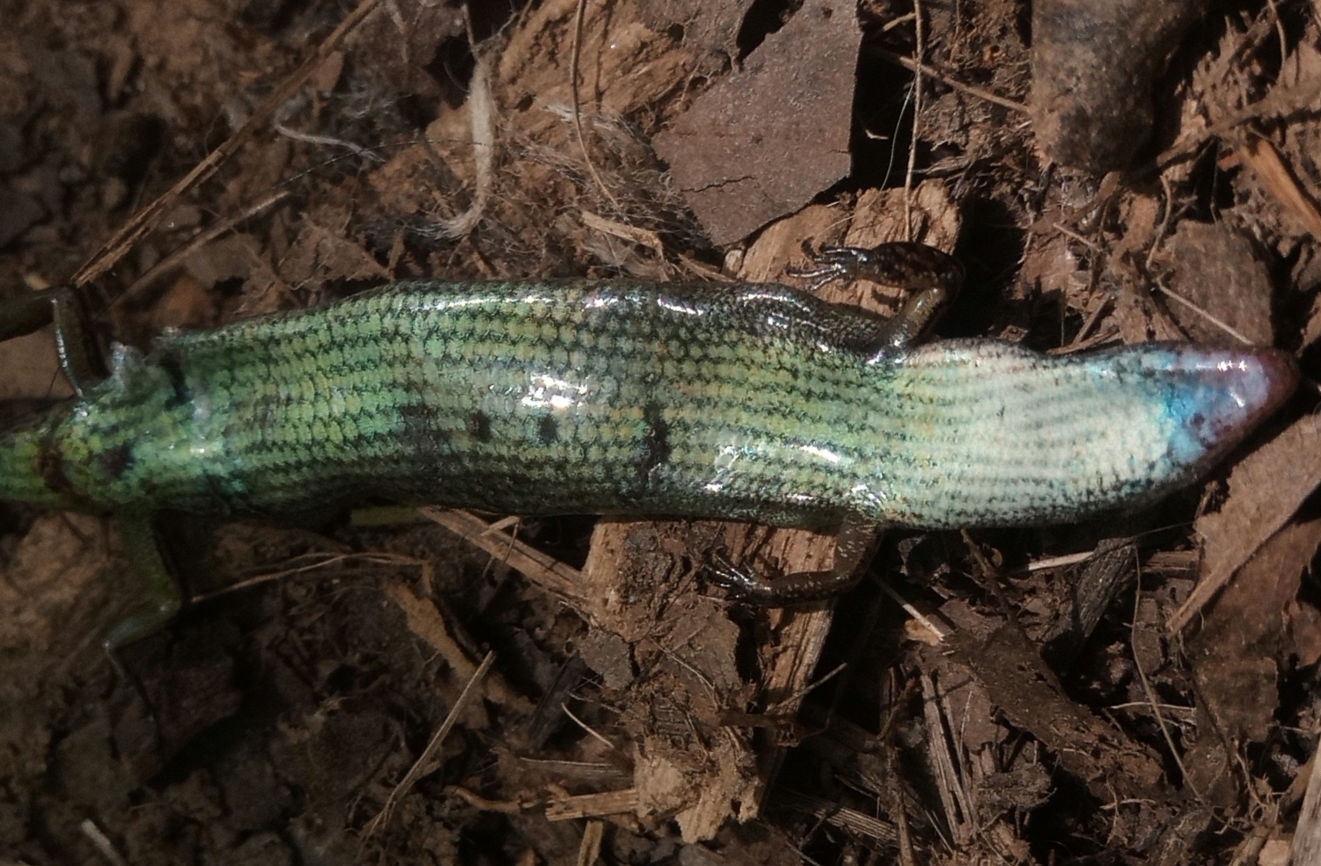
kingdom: Animalia
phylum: Chordata
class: Squamata
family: Scincidae
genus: Scincella
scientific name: Scincella lateralis
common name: Ground skink
